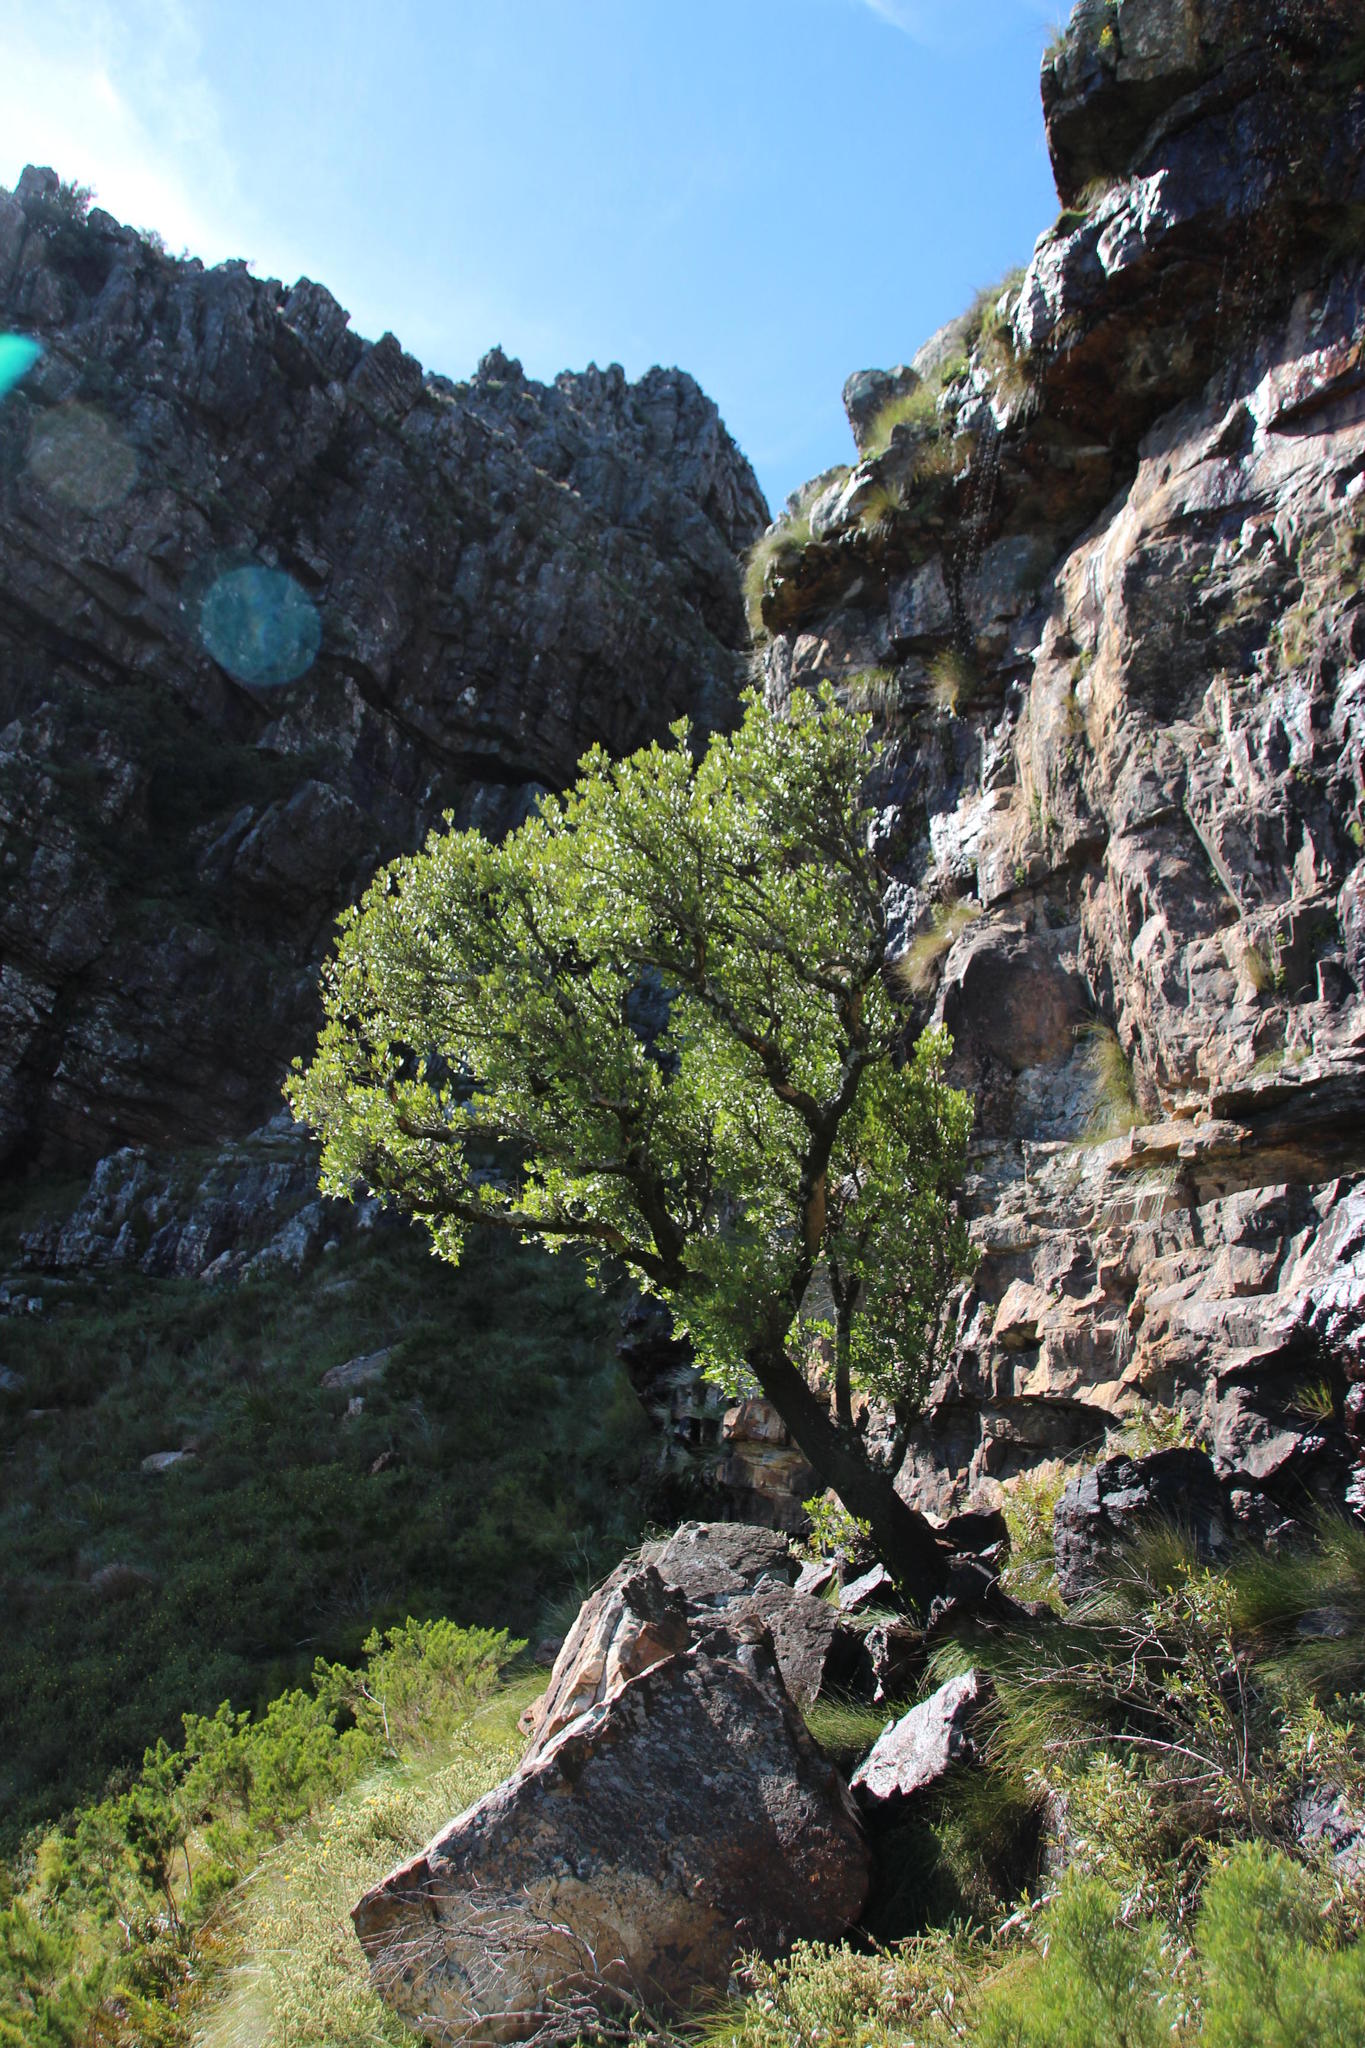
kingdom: Plantae
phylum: Tracheophyta
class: Magnoliopsida
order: Celastrales
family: Celastraceae
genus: Gymnosporia
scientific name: Gymnosporia laurina
